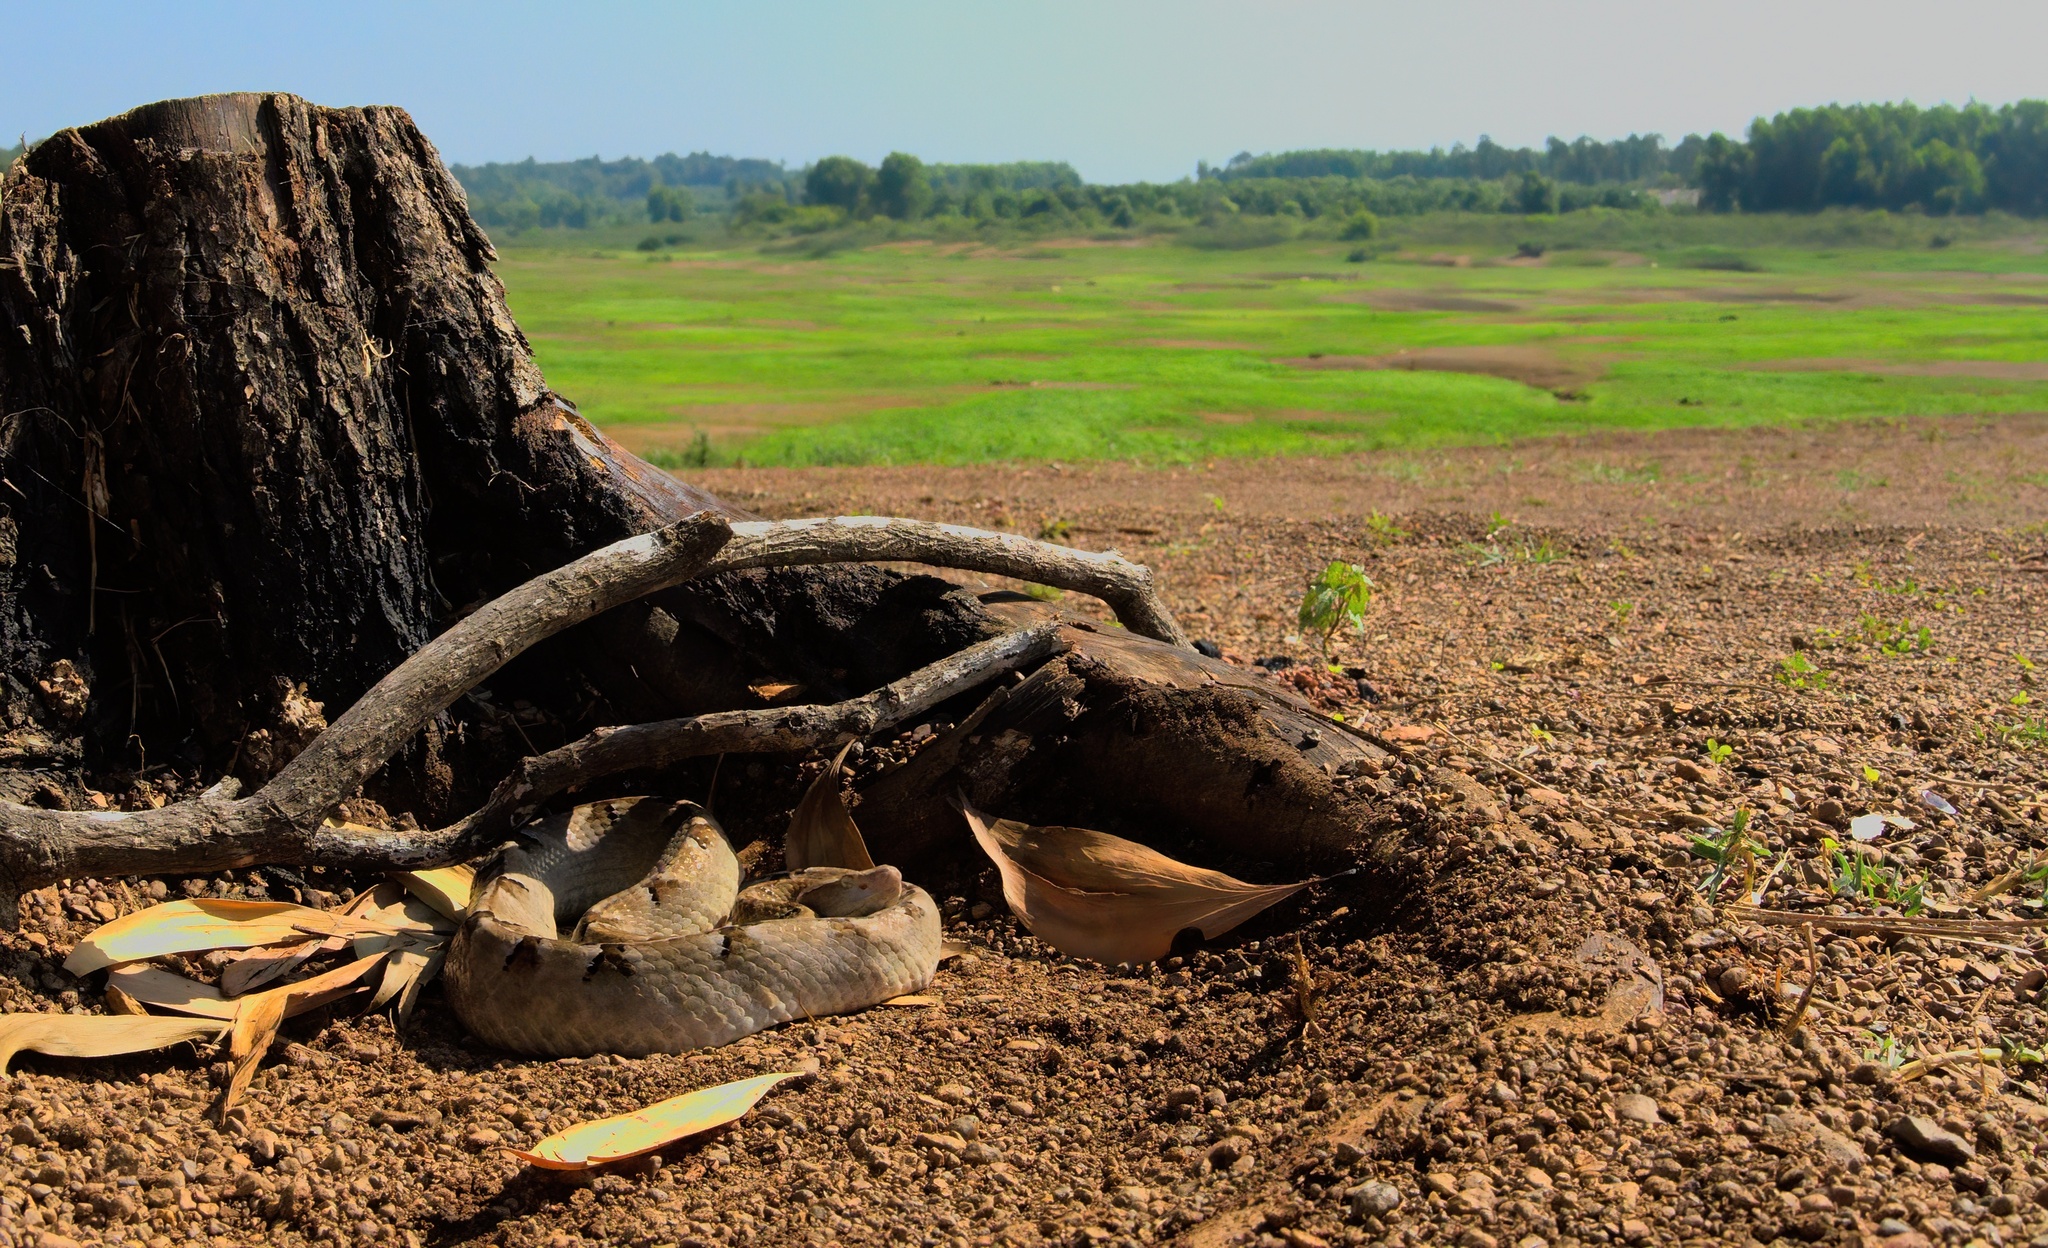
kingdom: Animalia
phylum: Chordata
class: Squamata
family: Viperidae
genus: Calloselasma
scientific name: Calloselasma rhodostoma
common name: Malayan pit viper
